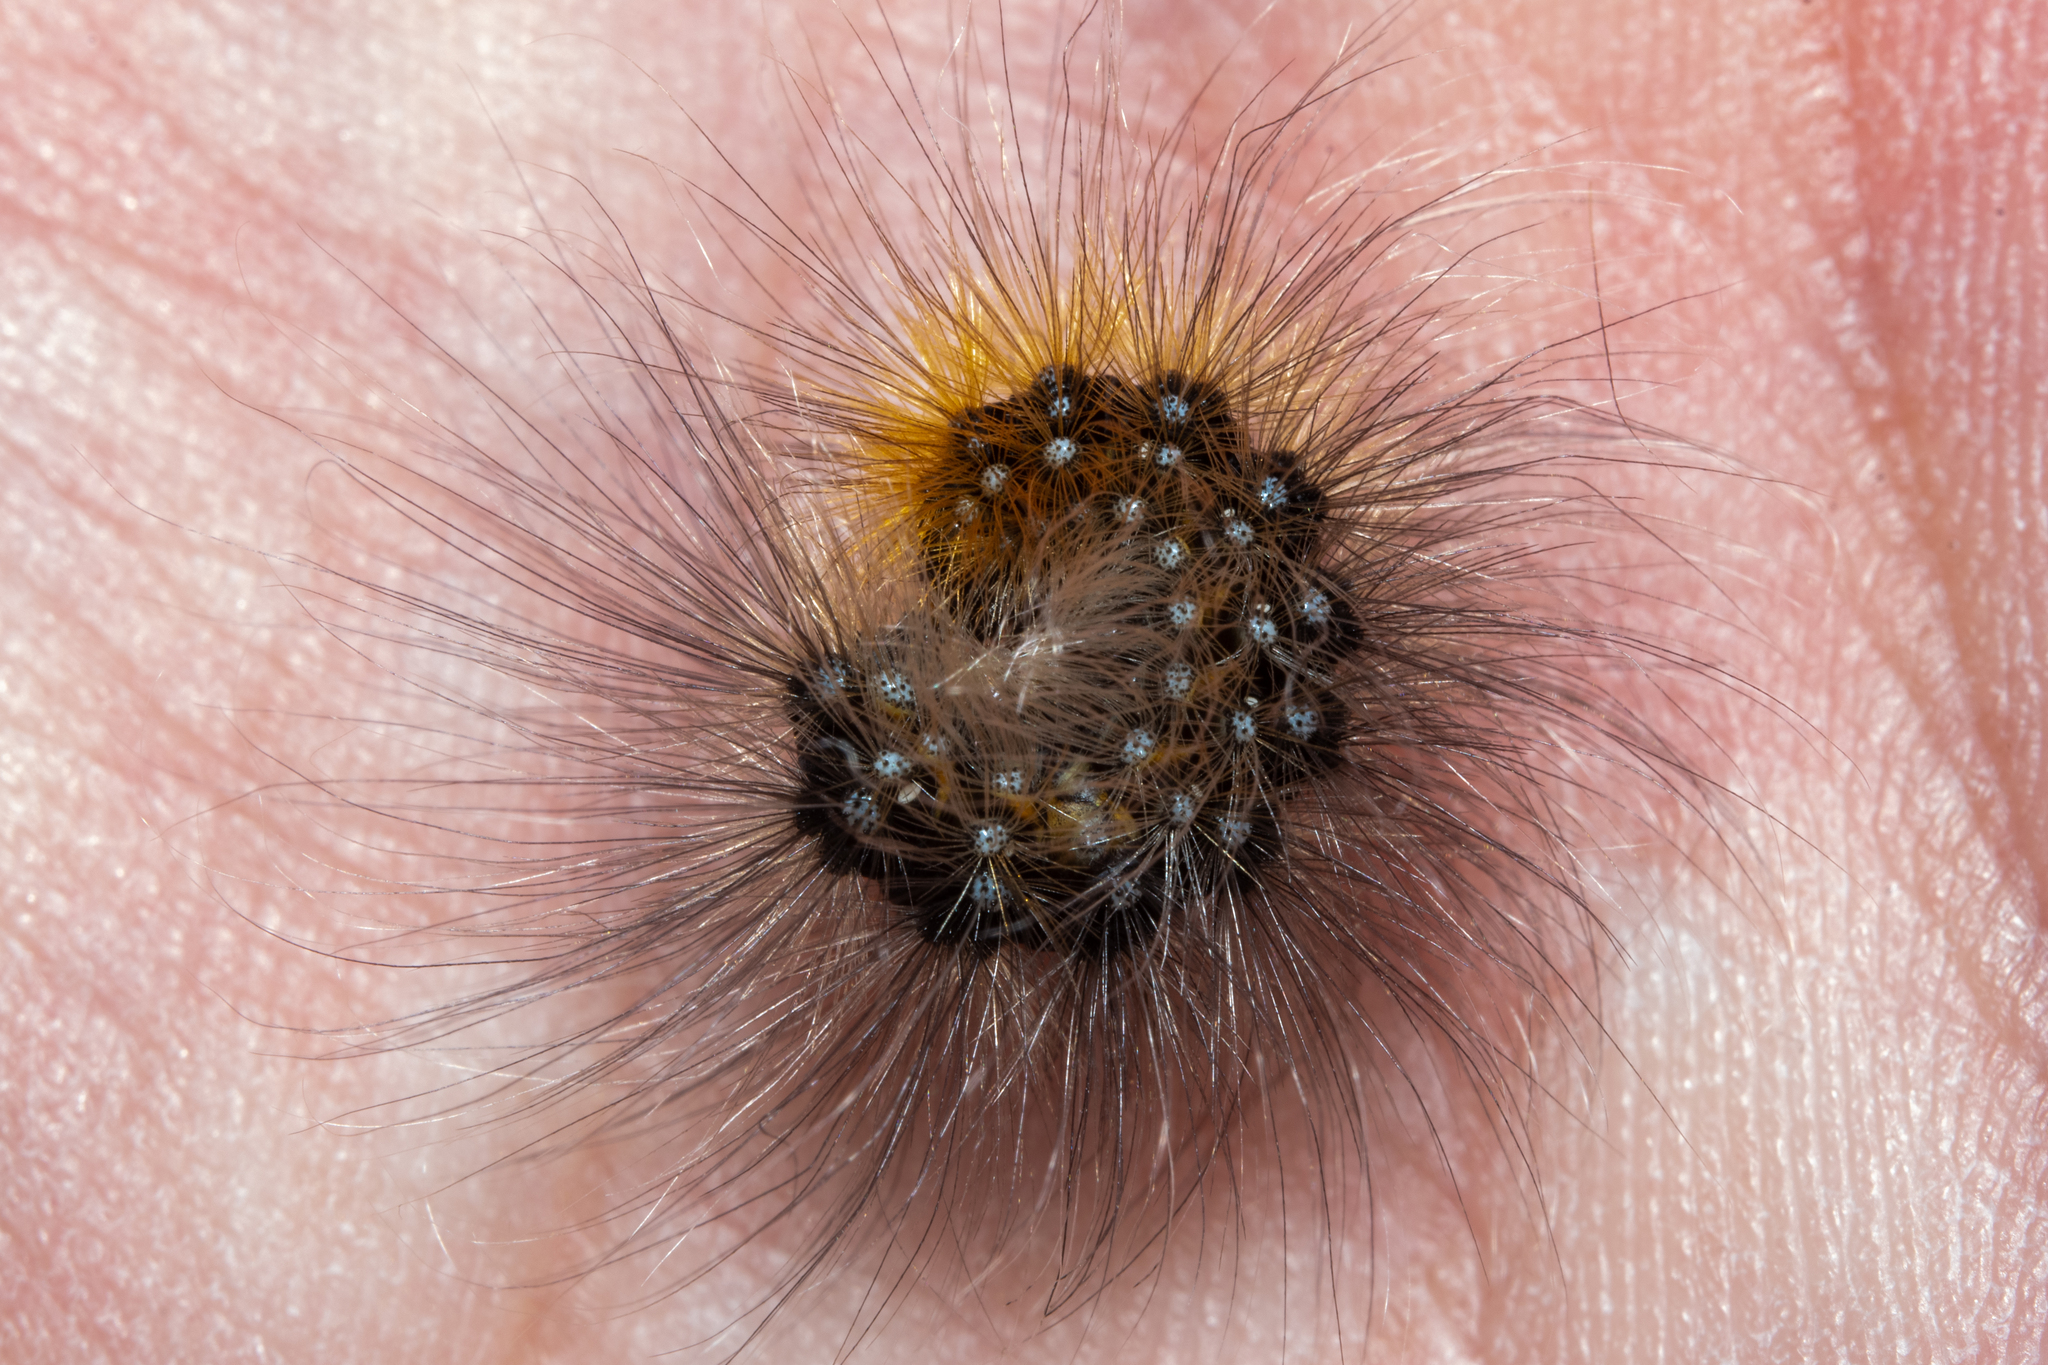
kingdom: Animalia
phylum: Arthropoda
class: Insecta
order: Lepidoptera
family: Erebidae
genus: Arctia
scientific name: Arctia caja
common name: Garden tiger
